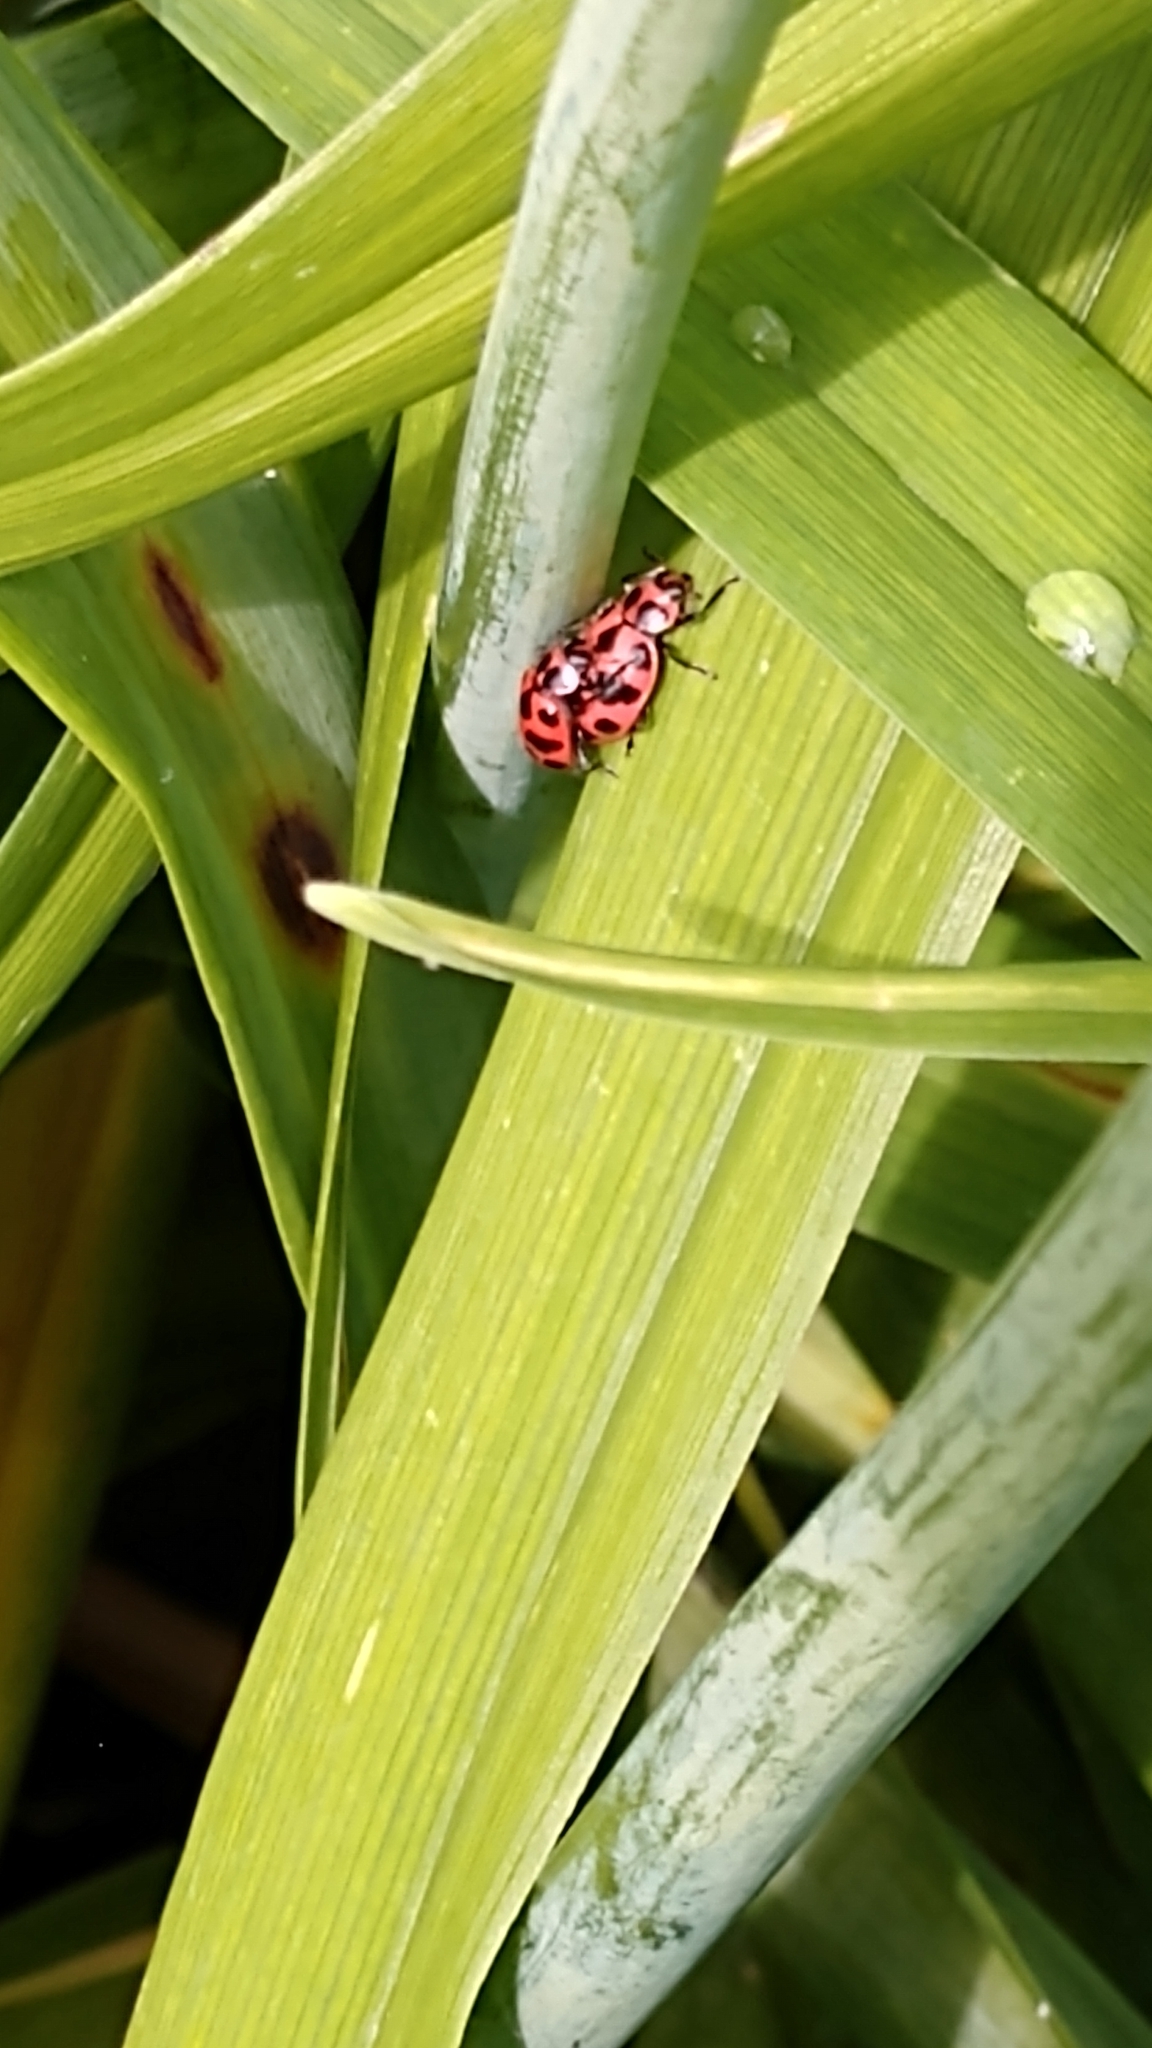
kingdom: Animalia
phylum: Arthropoda
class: Insecta
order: Coleoptera
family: Coccinellidae
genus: Coleomegilla
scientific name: Coleomegilla maculata
